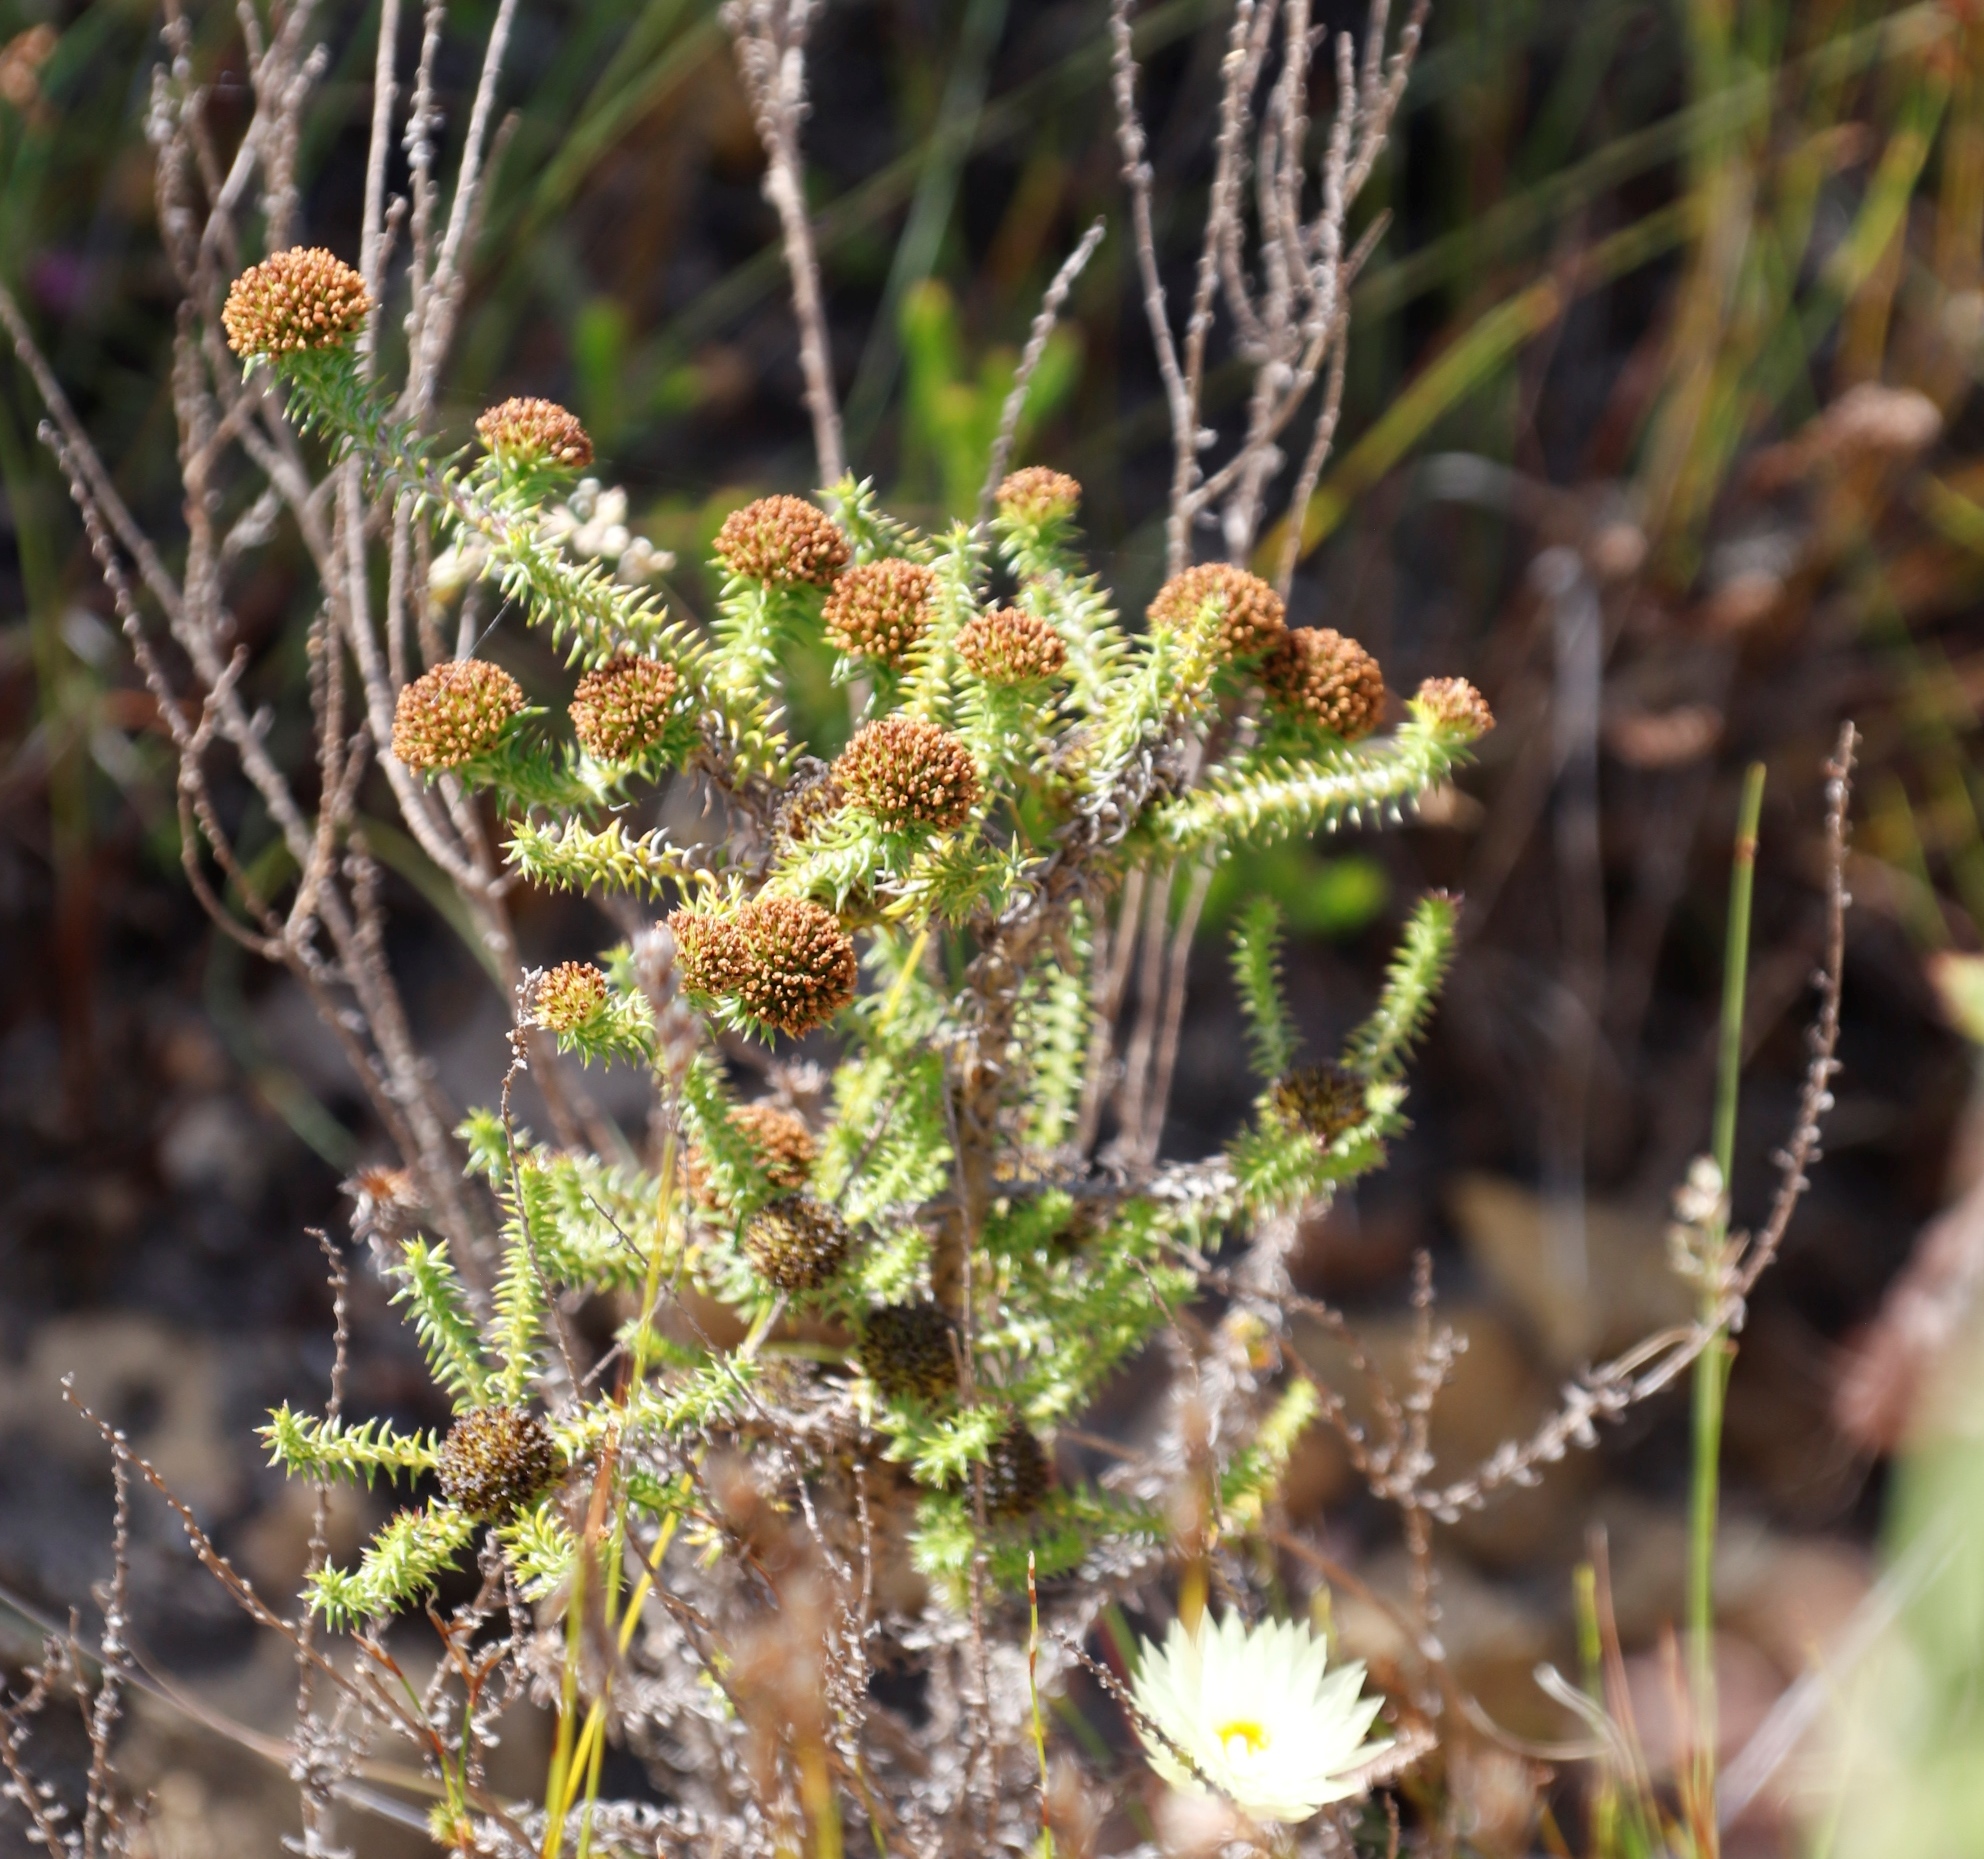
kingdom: Plantae
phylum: Tracheophyta
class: Magnoliopsida
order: Asterales
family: Asteraceae
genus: Stoebe
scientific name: Stoebe aethiopica
